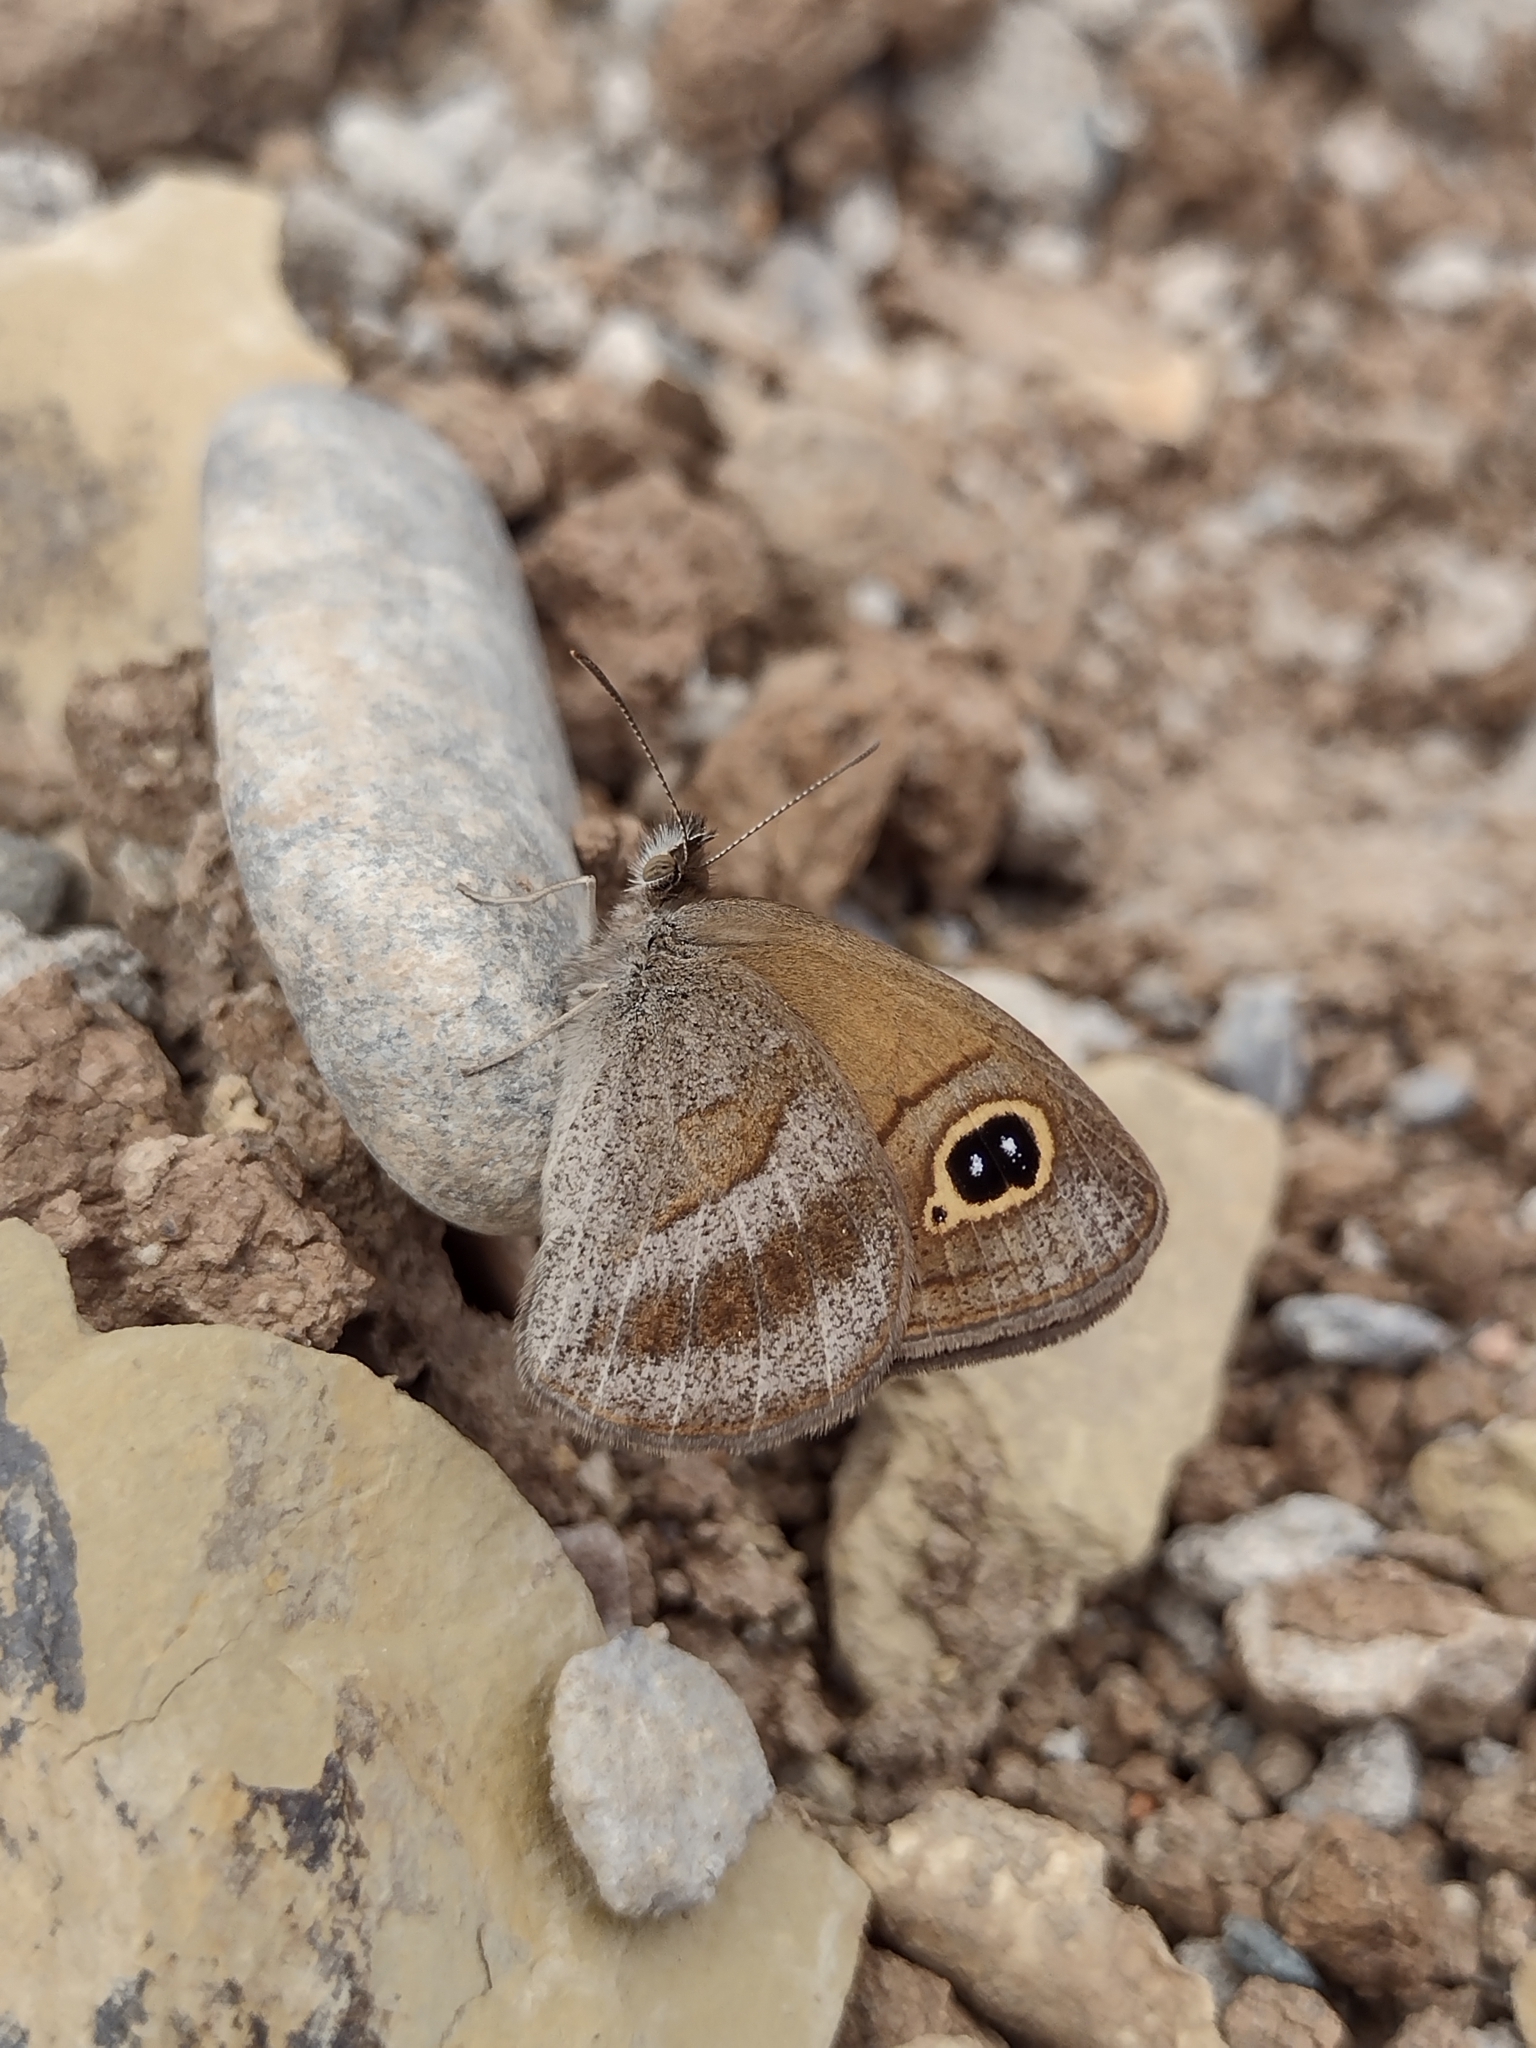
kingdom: Animalia
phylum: Arthropoda
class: Insecta
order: Lepidoptera
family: Nymphalidae
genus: Maniola
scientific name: Maniola imbrialis
